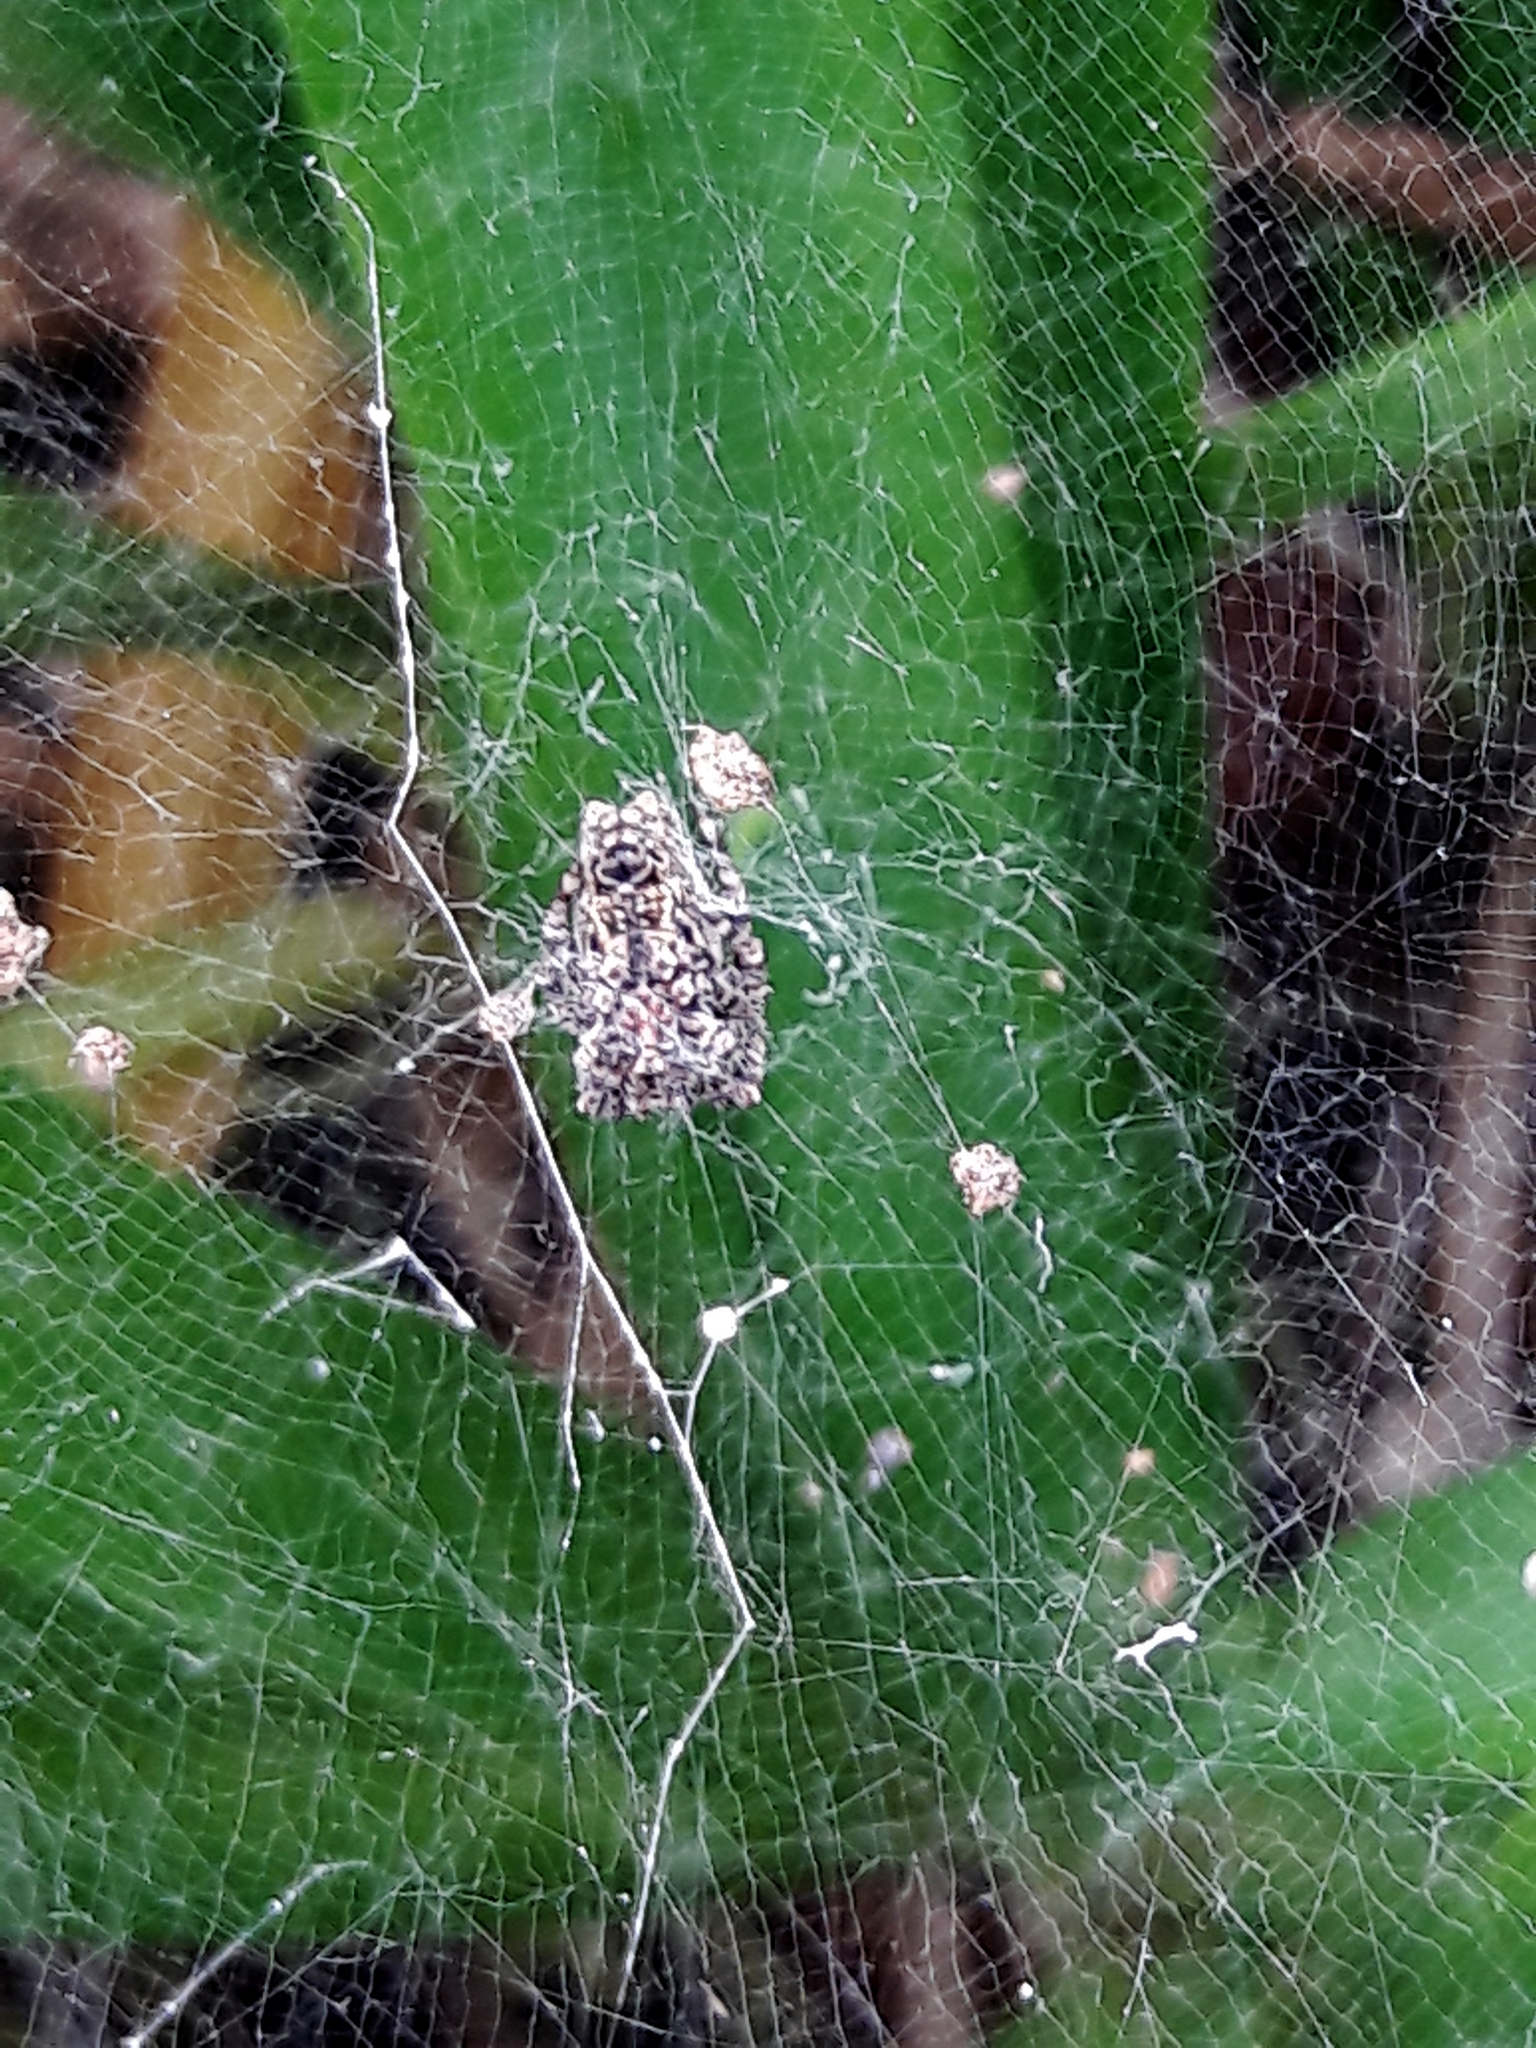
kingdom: Animalia
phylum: Arthropoda
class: Arachnida
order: Araneae
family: Araneidae
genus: Cyrtophora
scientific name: Cyrtophora citricola
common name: Orb weavers
